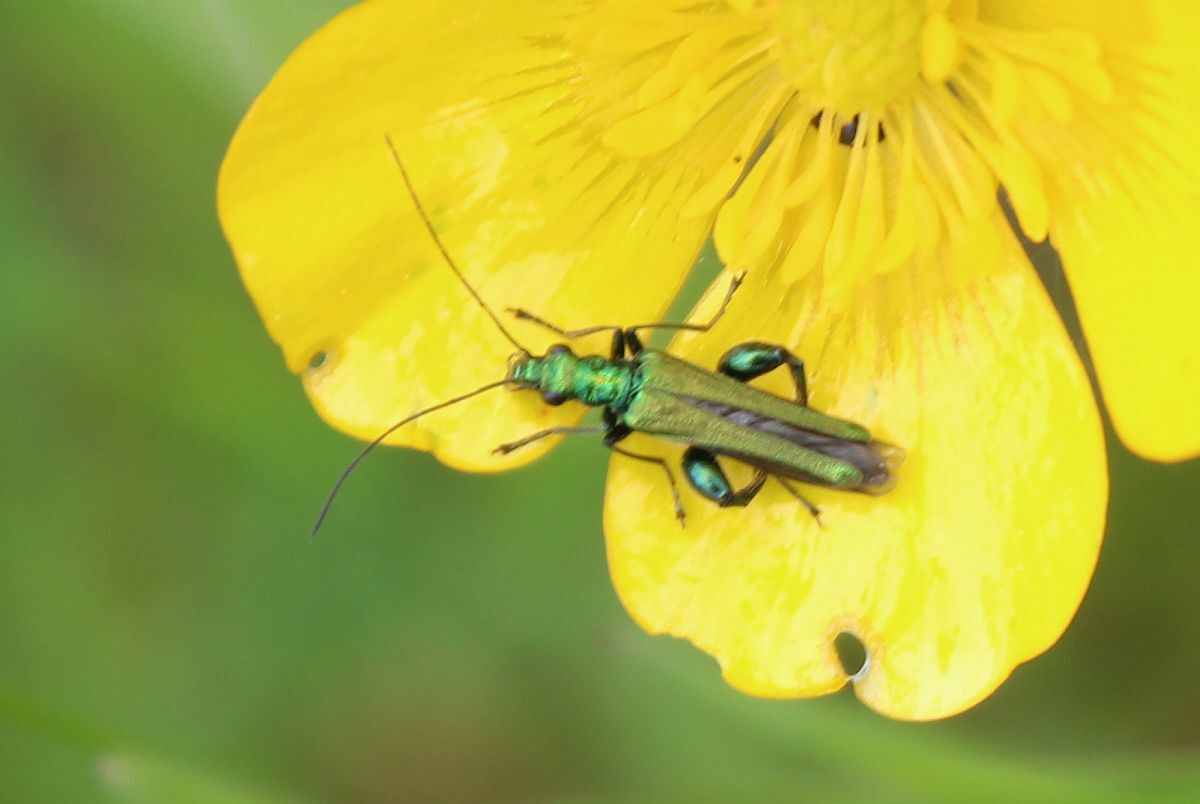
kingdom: Animalia
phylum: Arthropoda
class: Insecta
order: Coleoptera
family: Oedemeridae
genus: Oedemera
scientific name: Oedemera nobilis
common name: Swollen-thighed beetle
